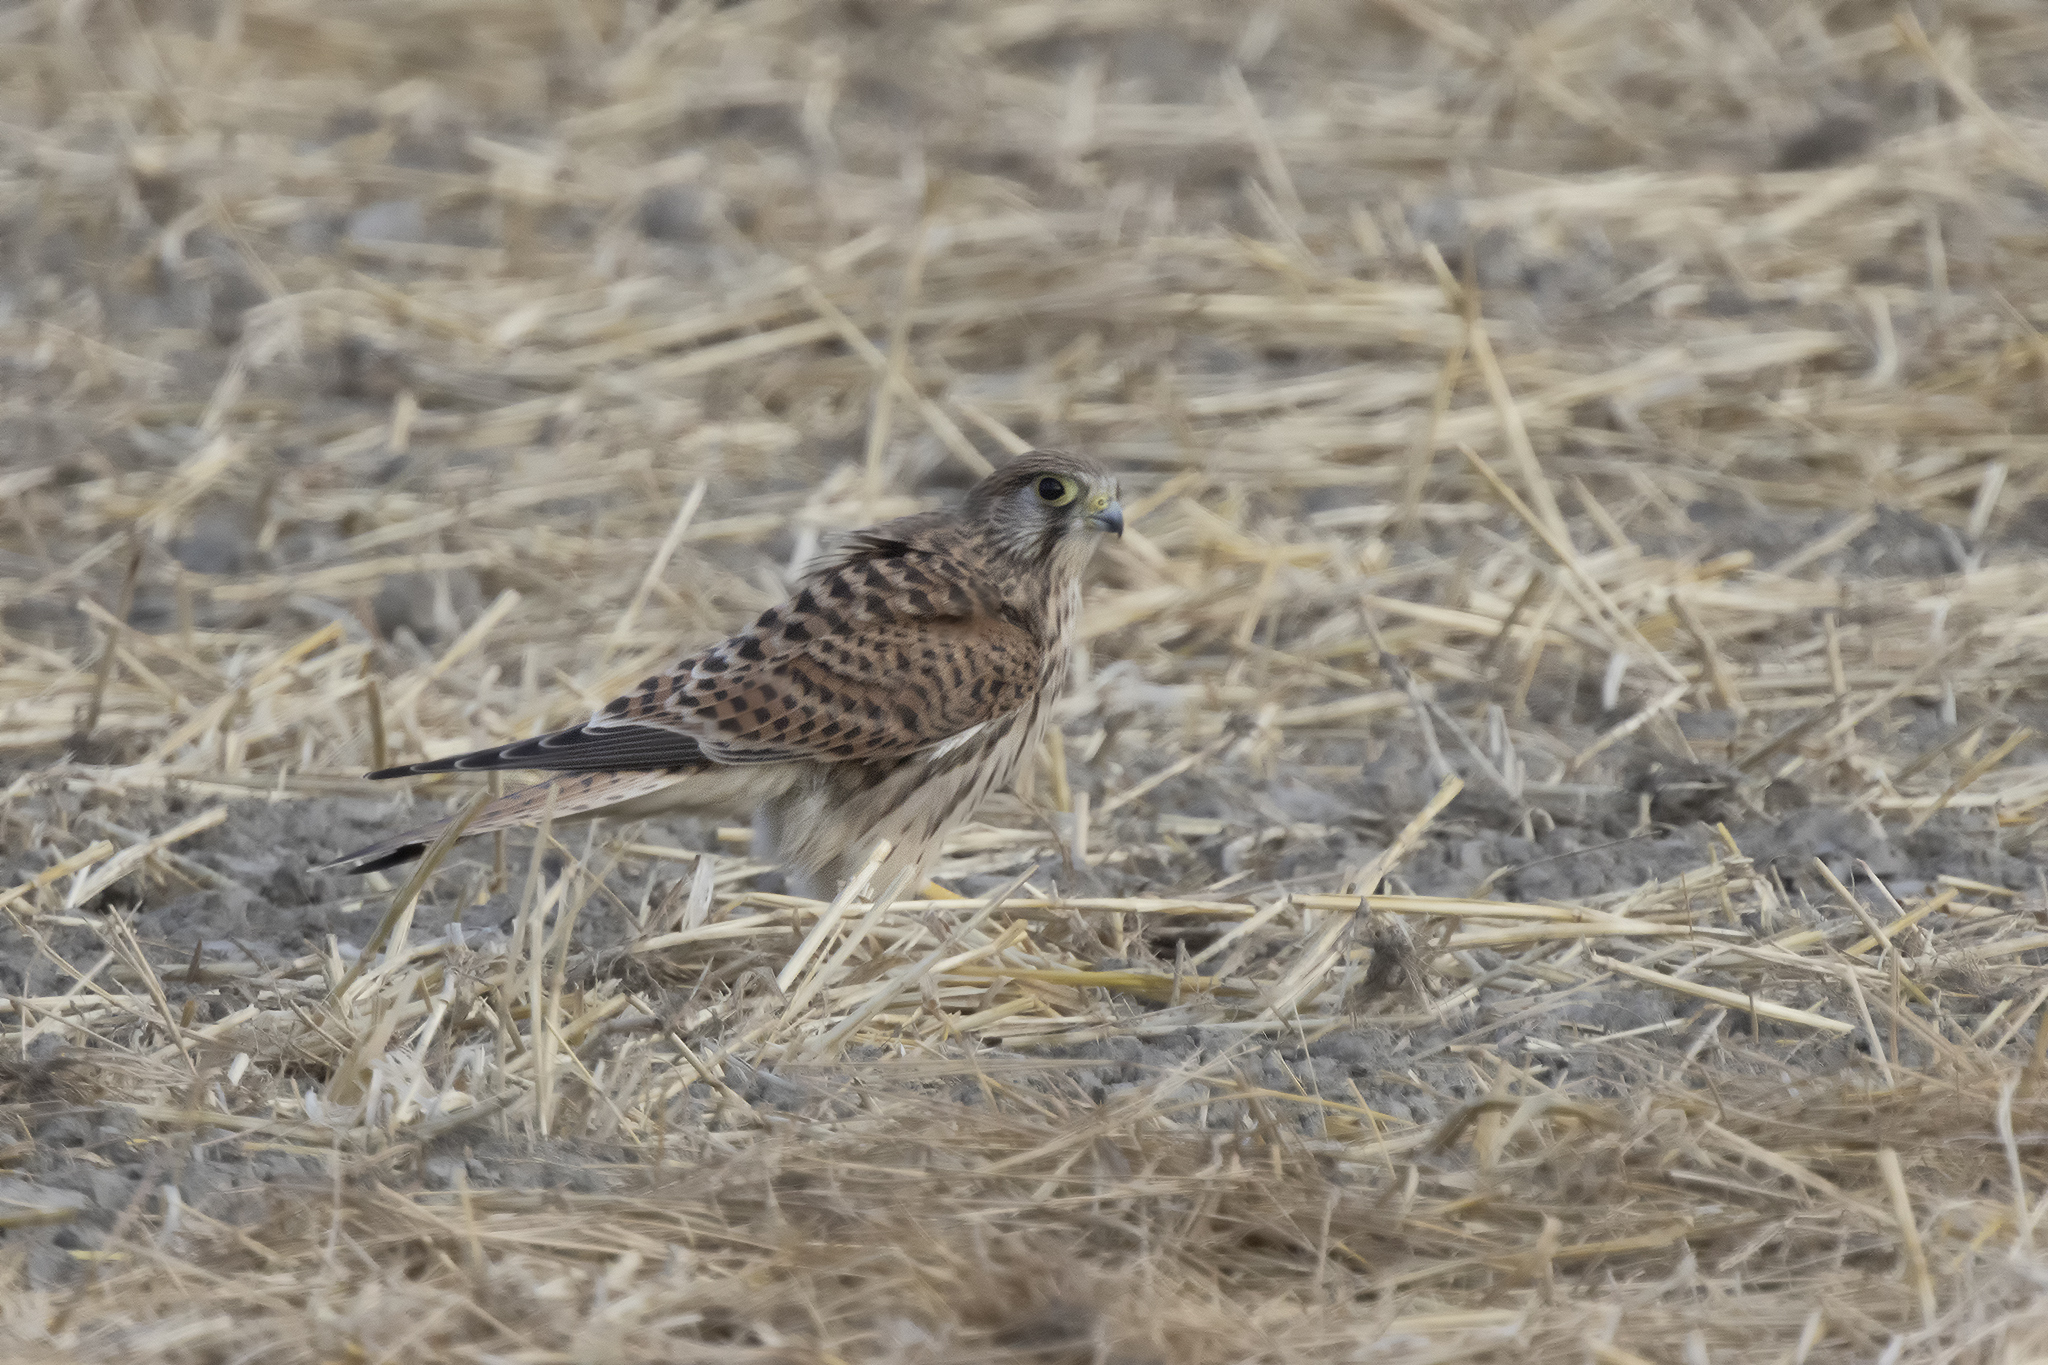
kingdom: Animalia
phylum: Chordata
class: Aves
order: Falconiformes
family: Falconidae
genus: Falco
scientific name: Falco tinnunculus
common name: Common kestrel
